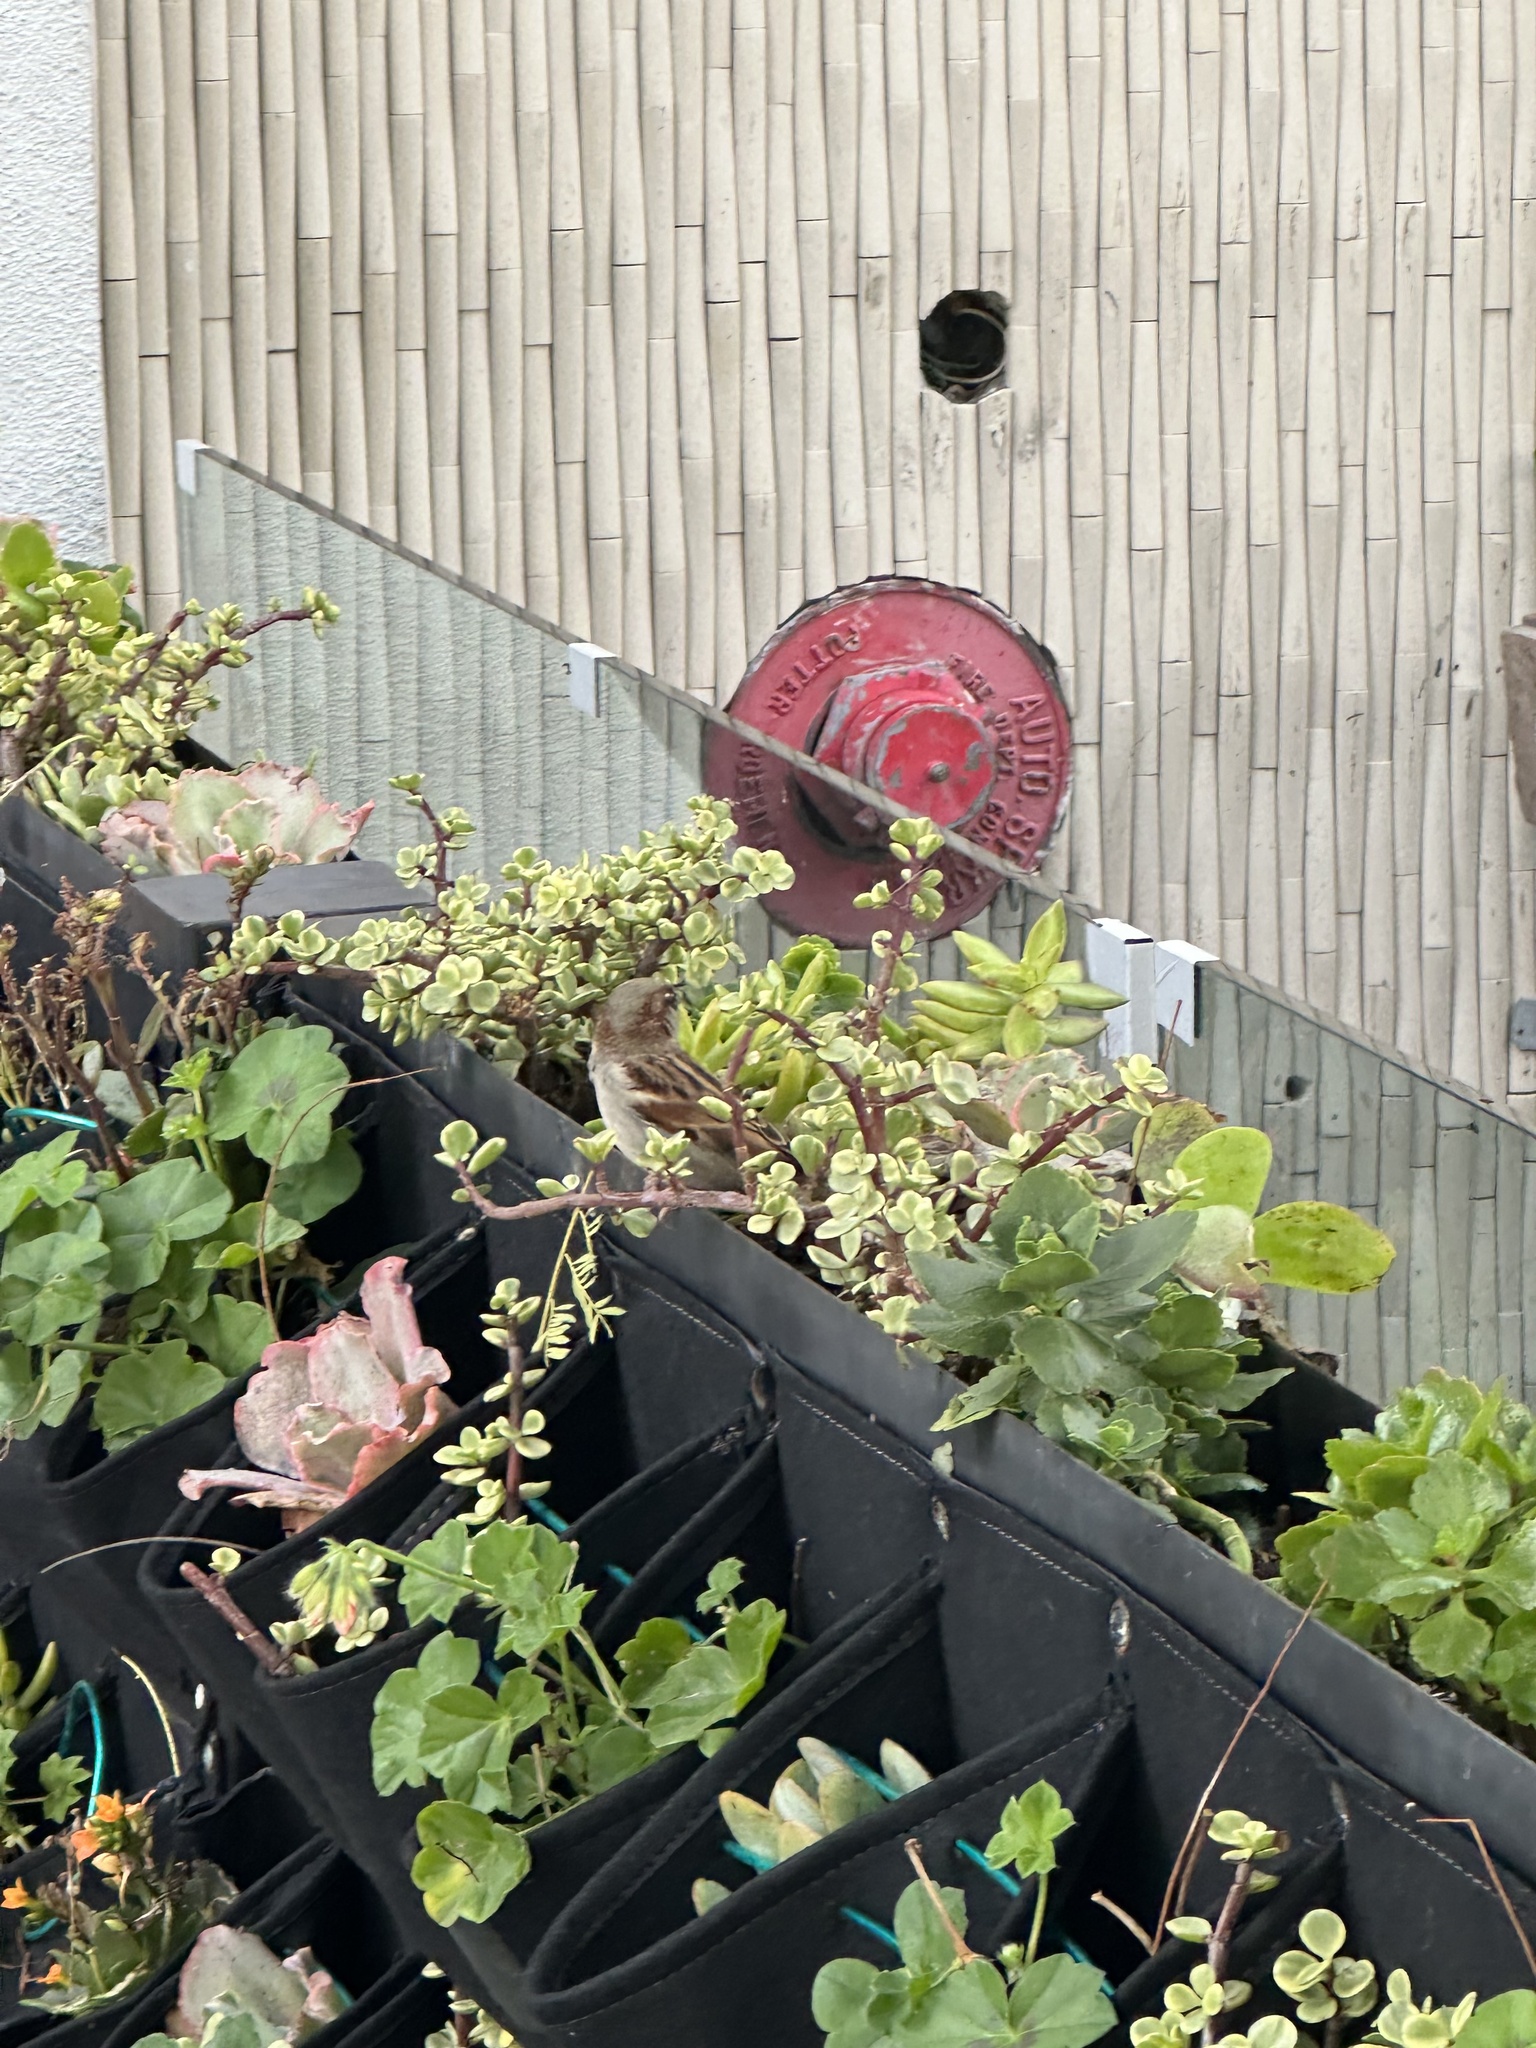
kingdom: Animalia
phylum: Chordata
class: Aves
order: Passeriformes
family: Passeridae
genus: Passer
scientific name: Passer domesticus
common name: House sparrow
